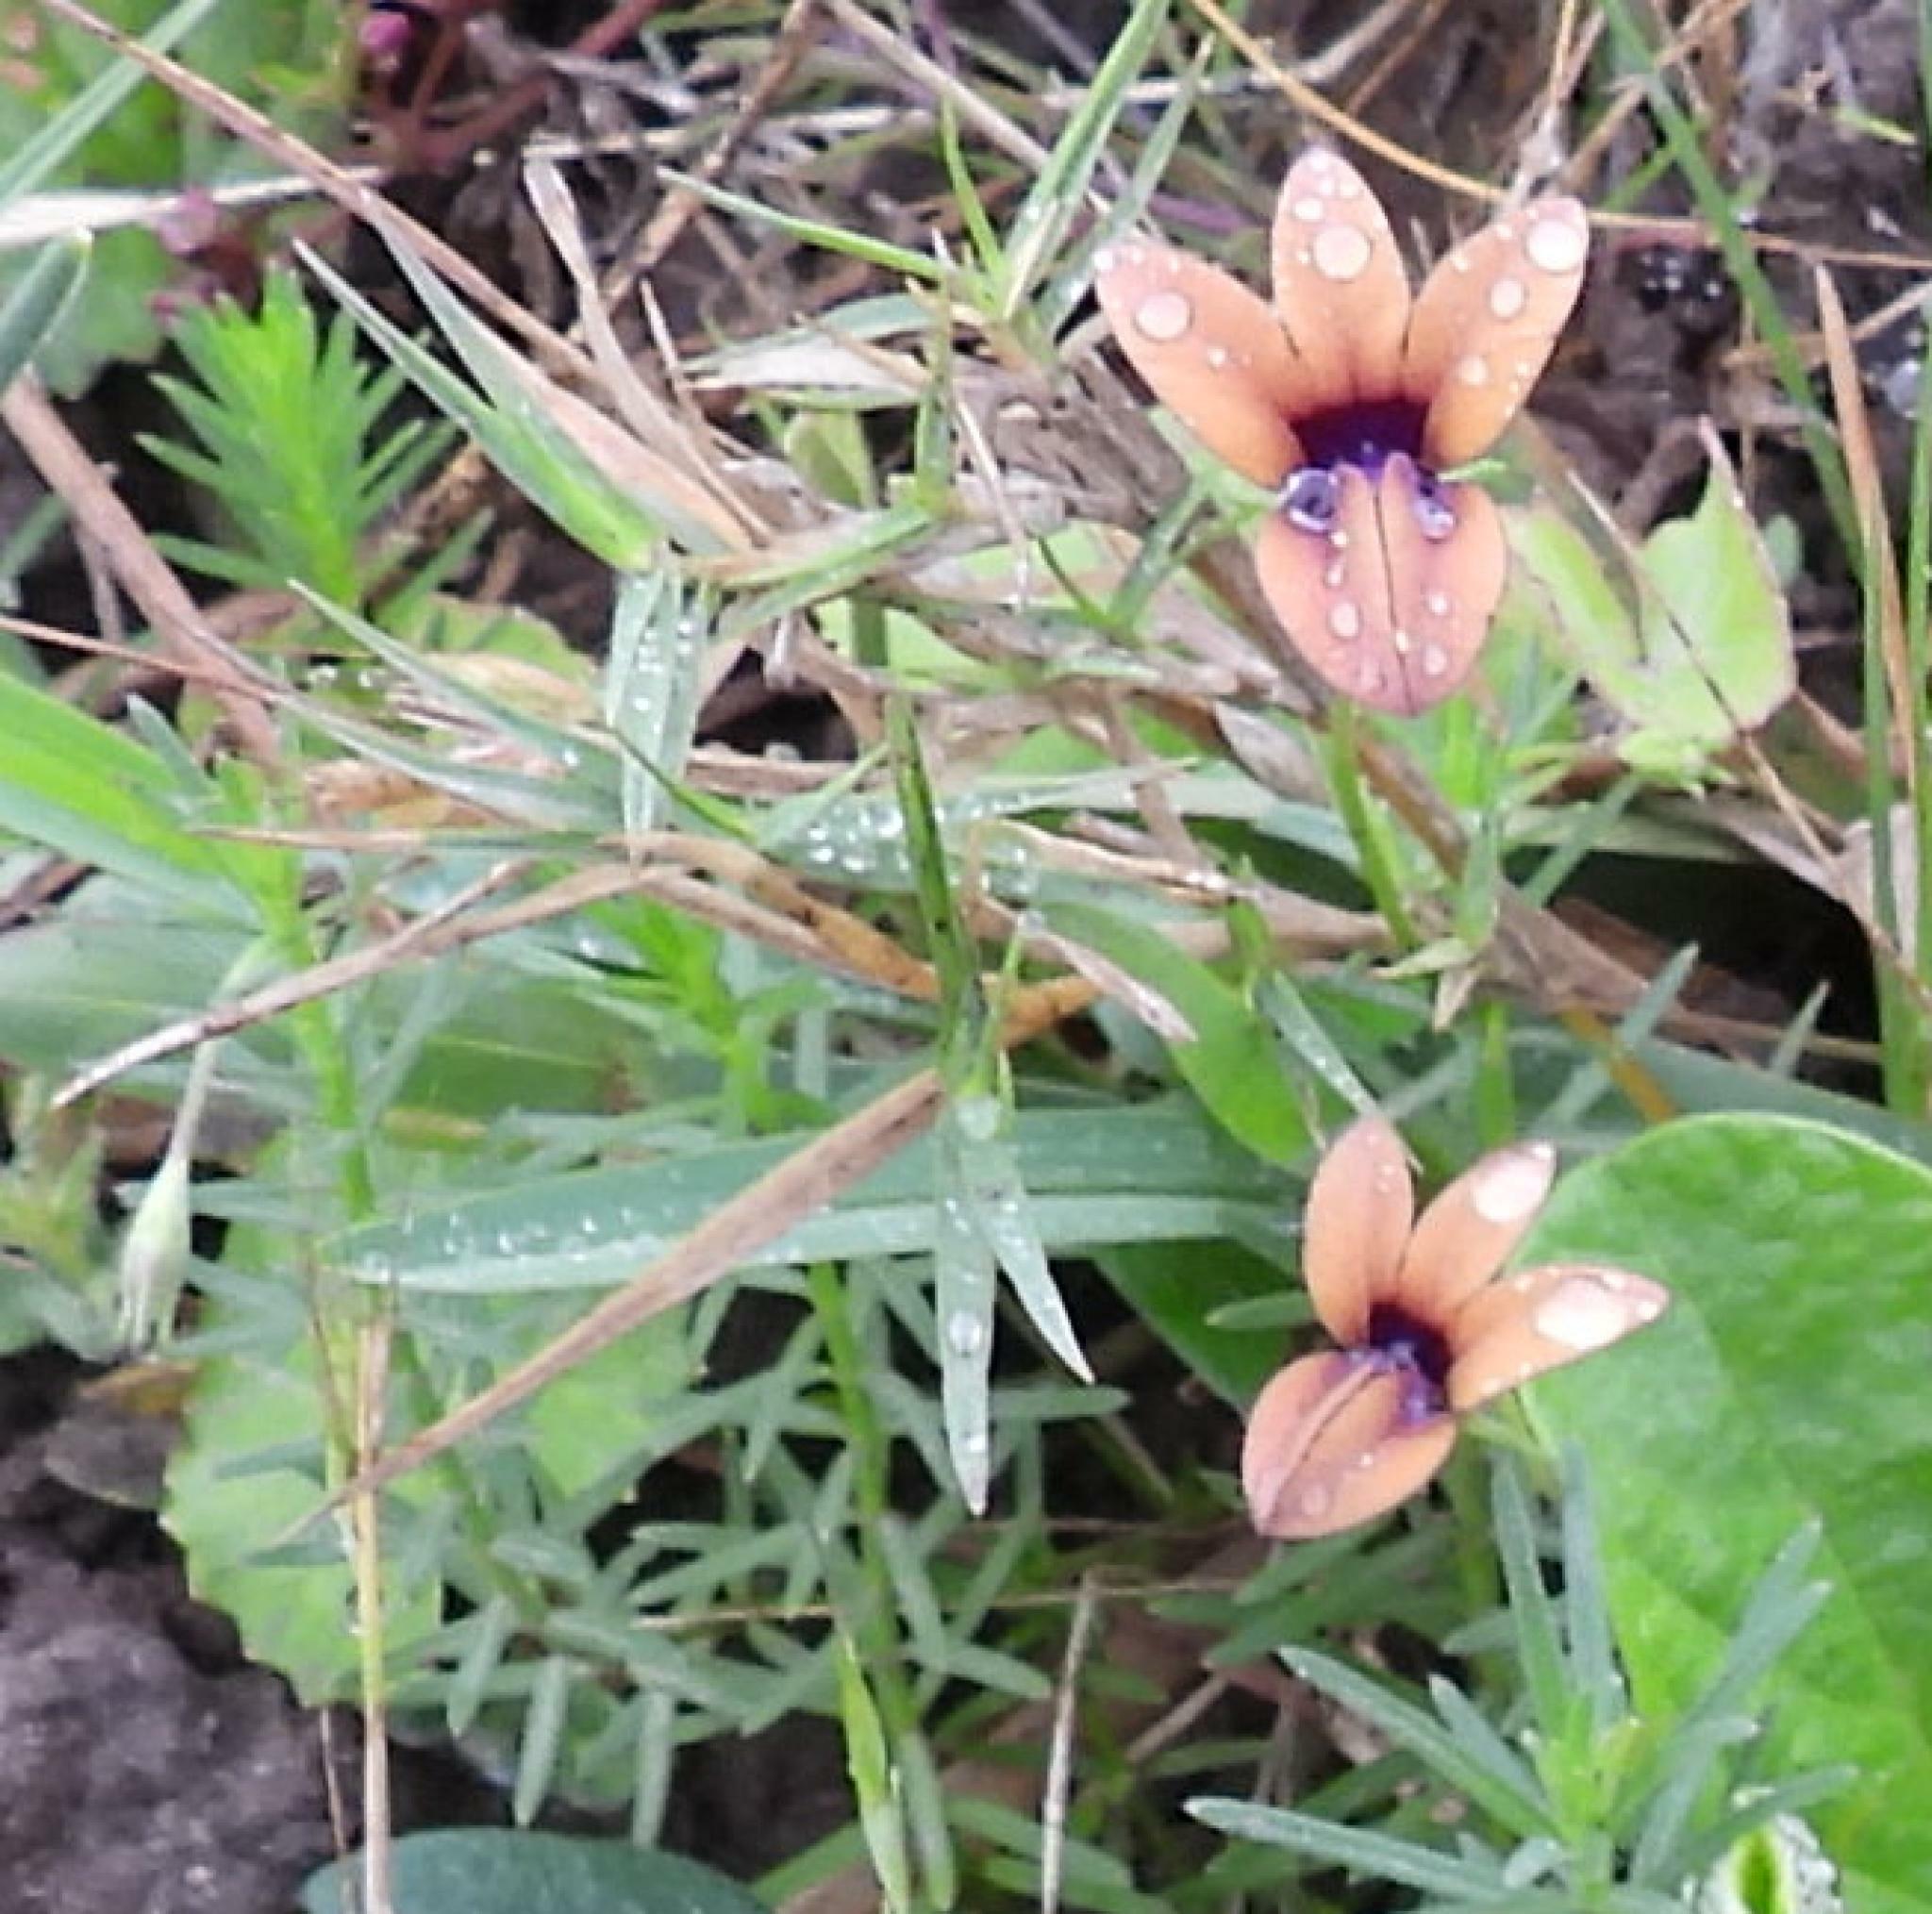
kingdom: Plantae
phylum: Tracheophyta
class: Magnoliopsida
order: Asterales
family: Campanulaceae
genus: Monopsis
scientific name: Monopsis unidentata
